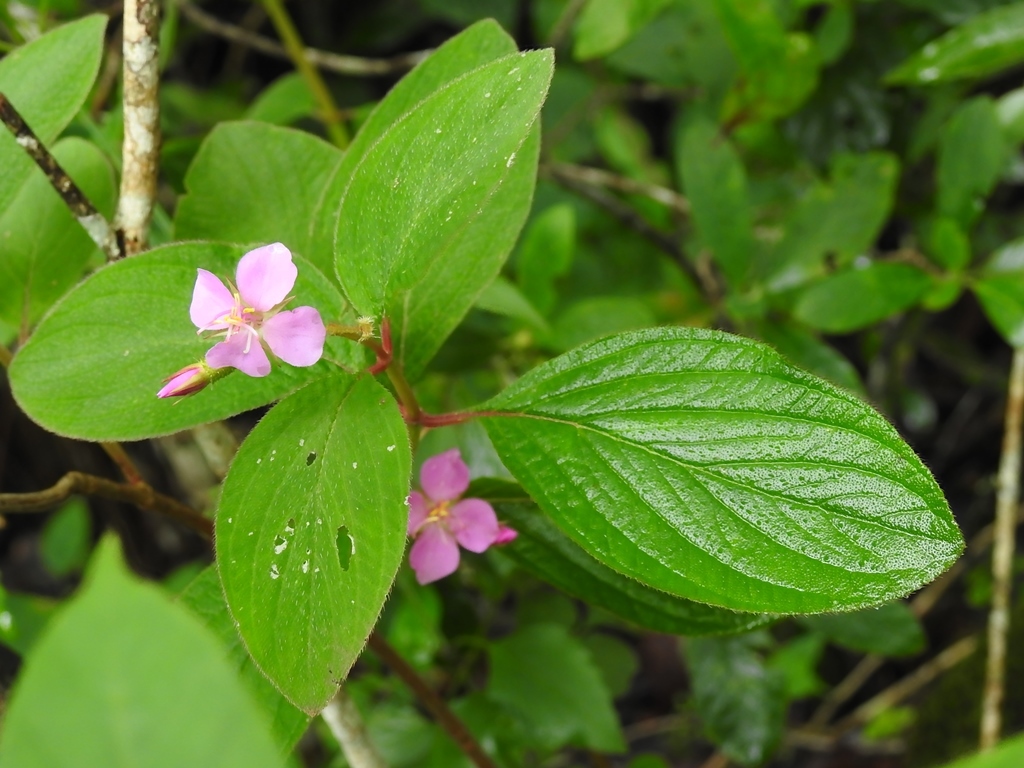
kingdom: Plantae
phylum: Tracheophyta
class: Magnoliopsida
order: Myrtales
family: Melastomataceae
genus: Heterocentron
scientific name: Heterocentron muricatum
